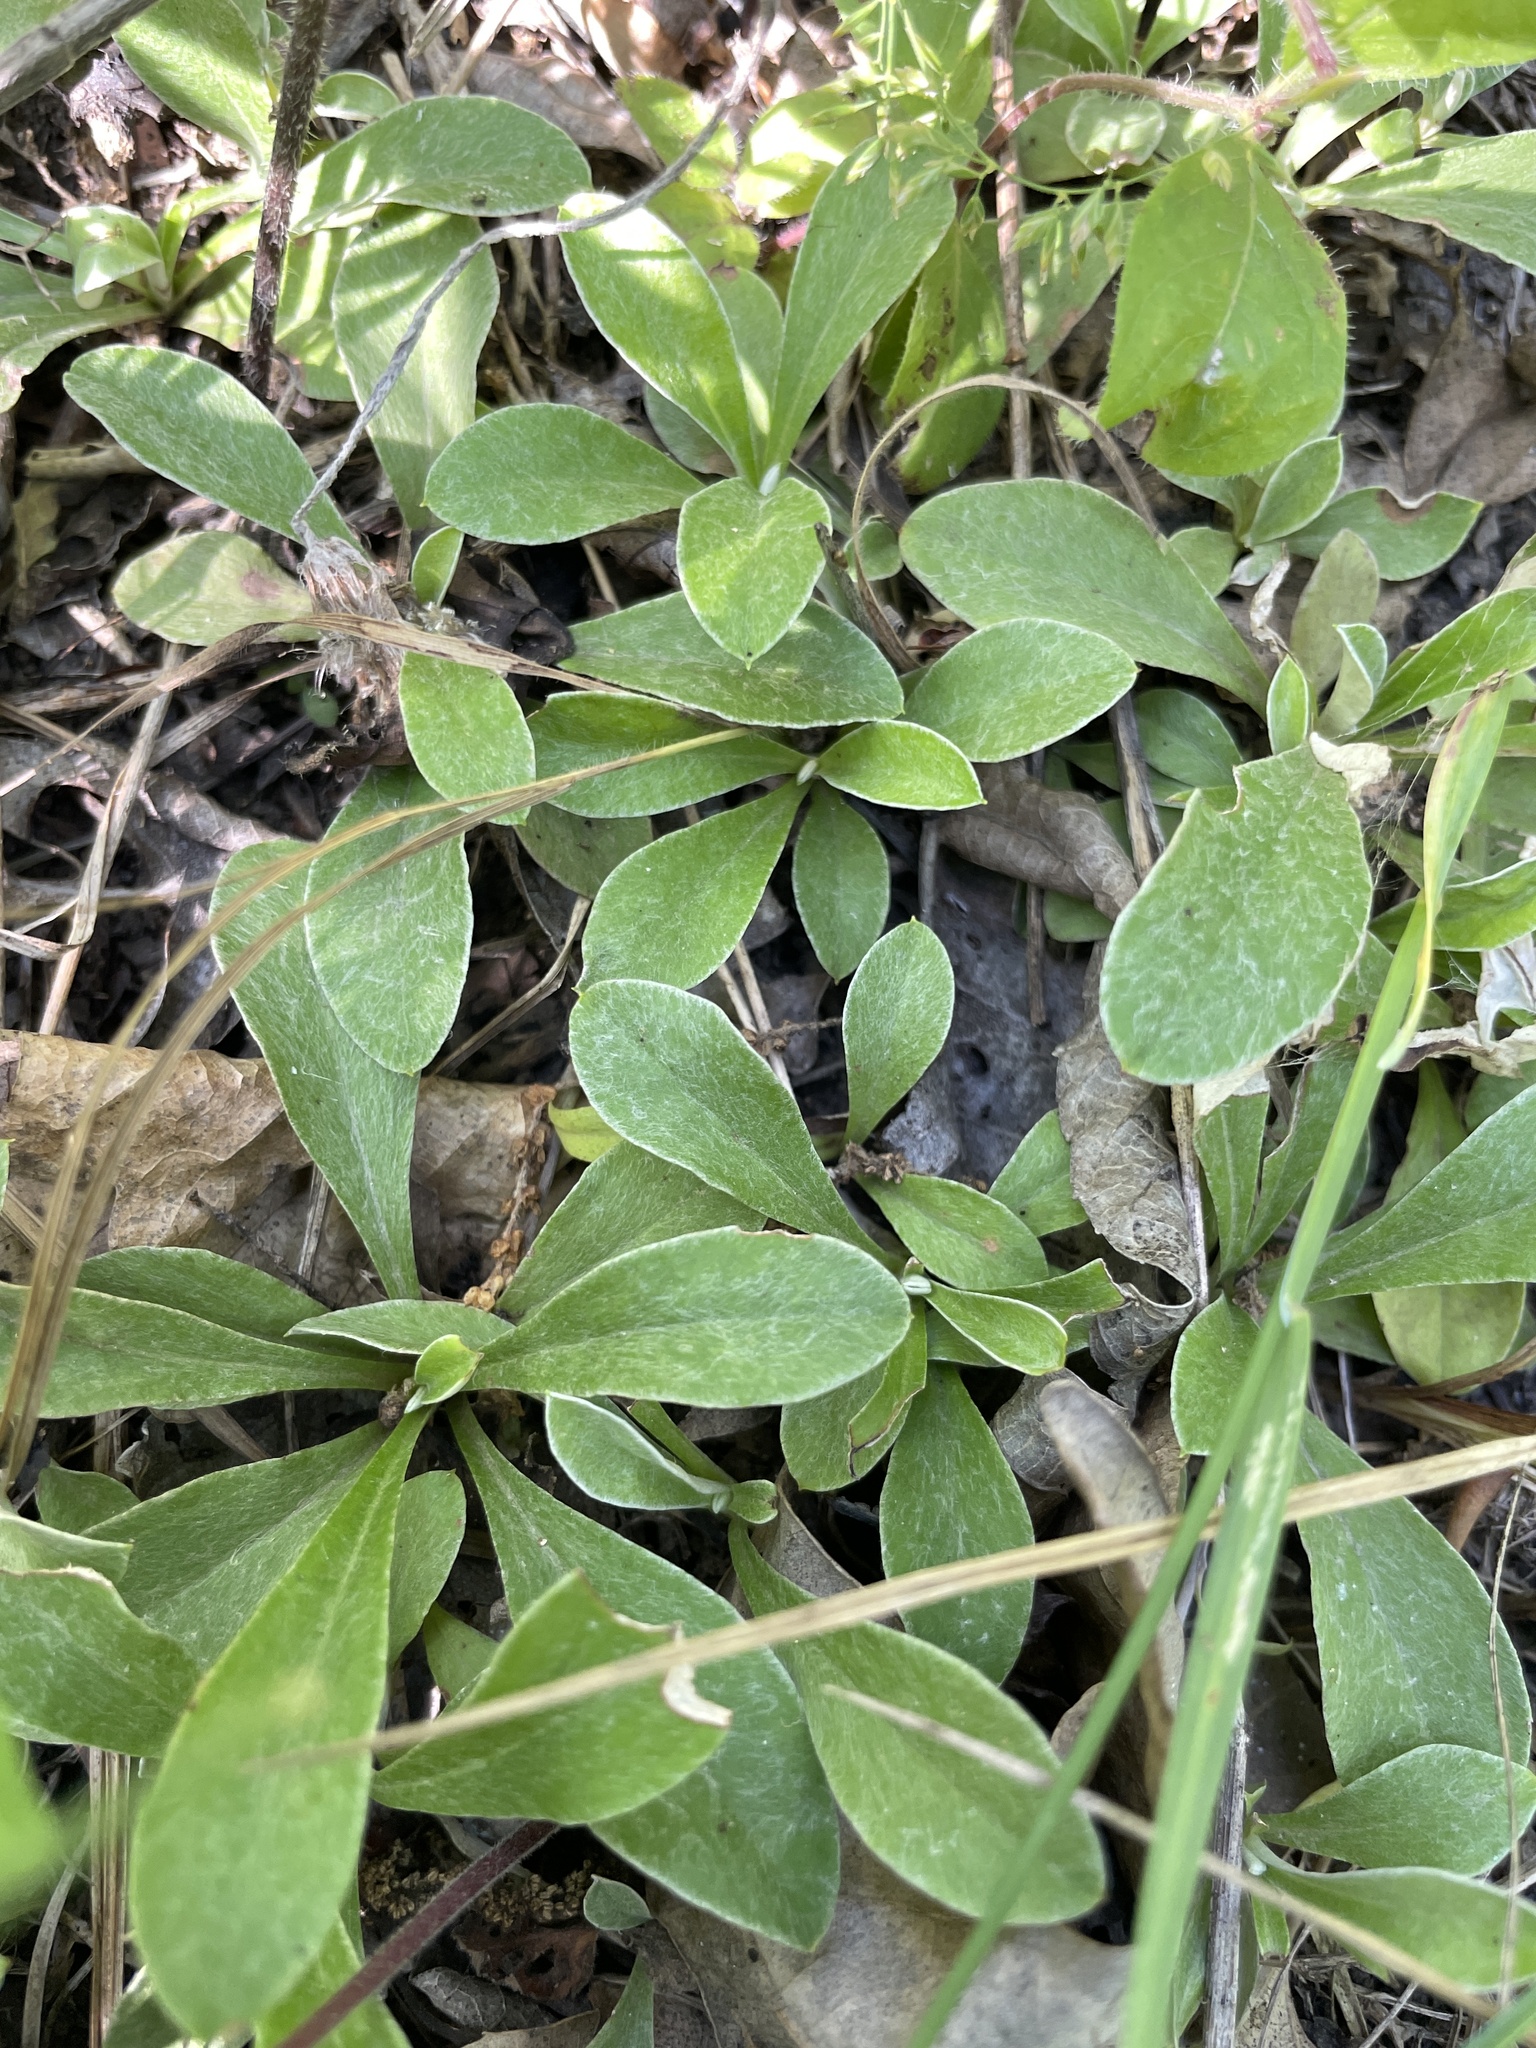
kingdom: Plantae
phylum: Tracheophyta
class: Magnoliopsida
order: Asterales
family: Asteraceae
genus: Antennaria
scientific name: Antennaria neglecta
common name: Field pussytoes
